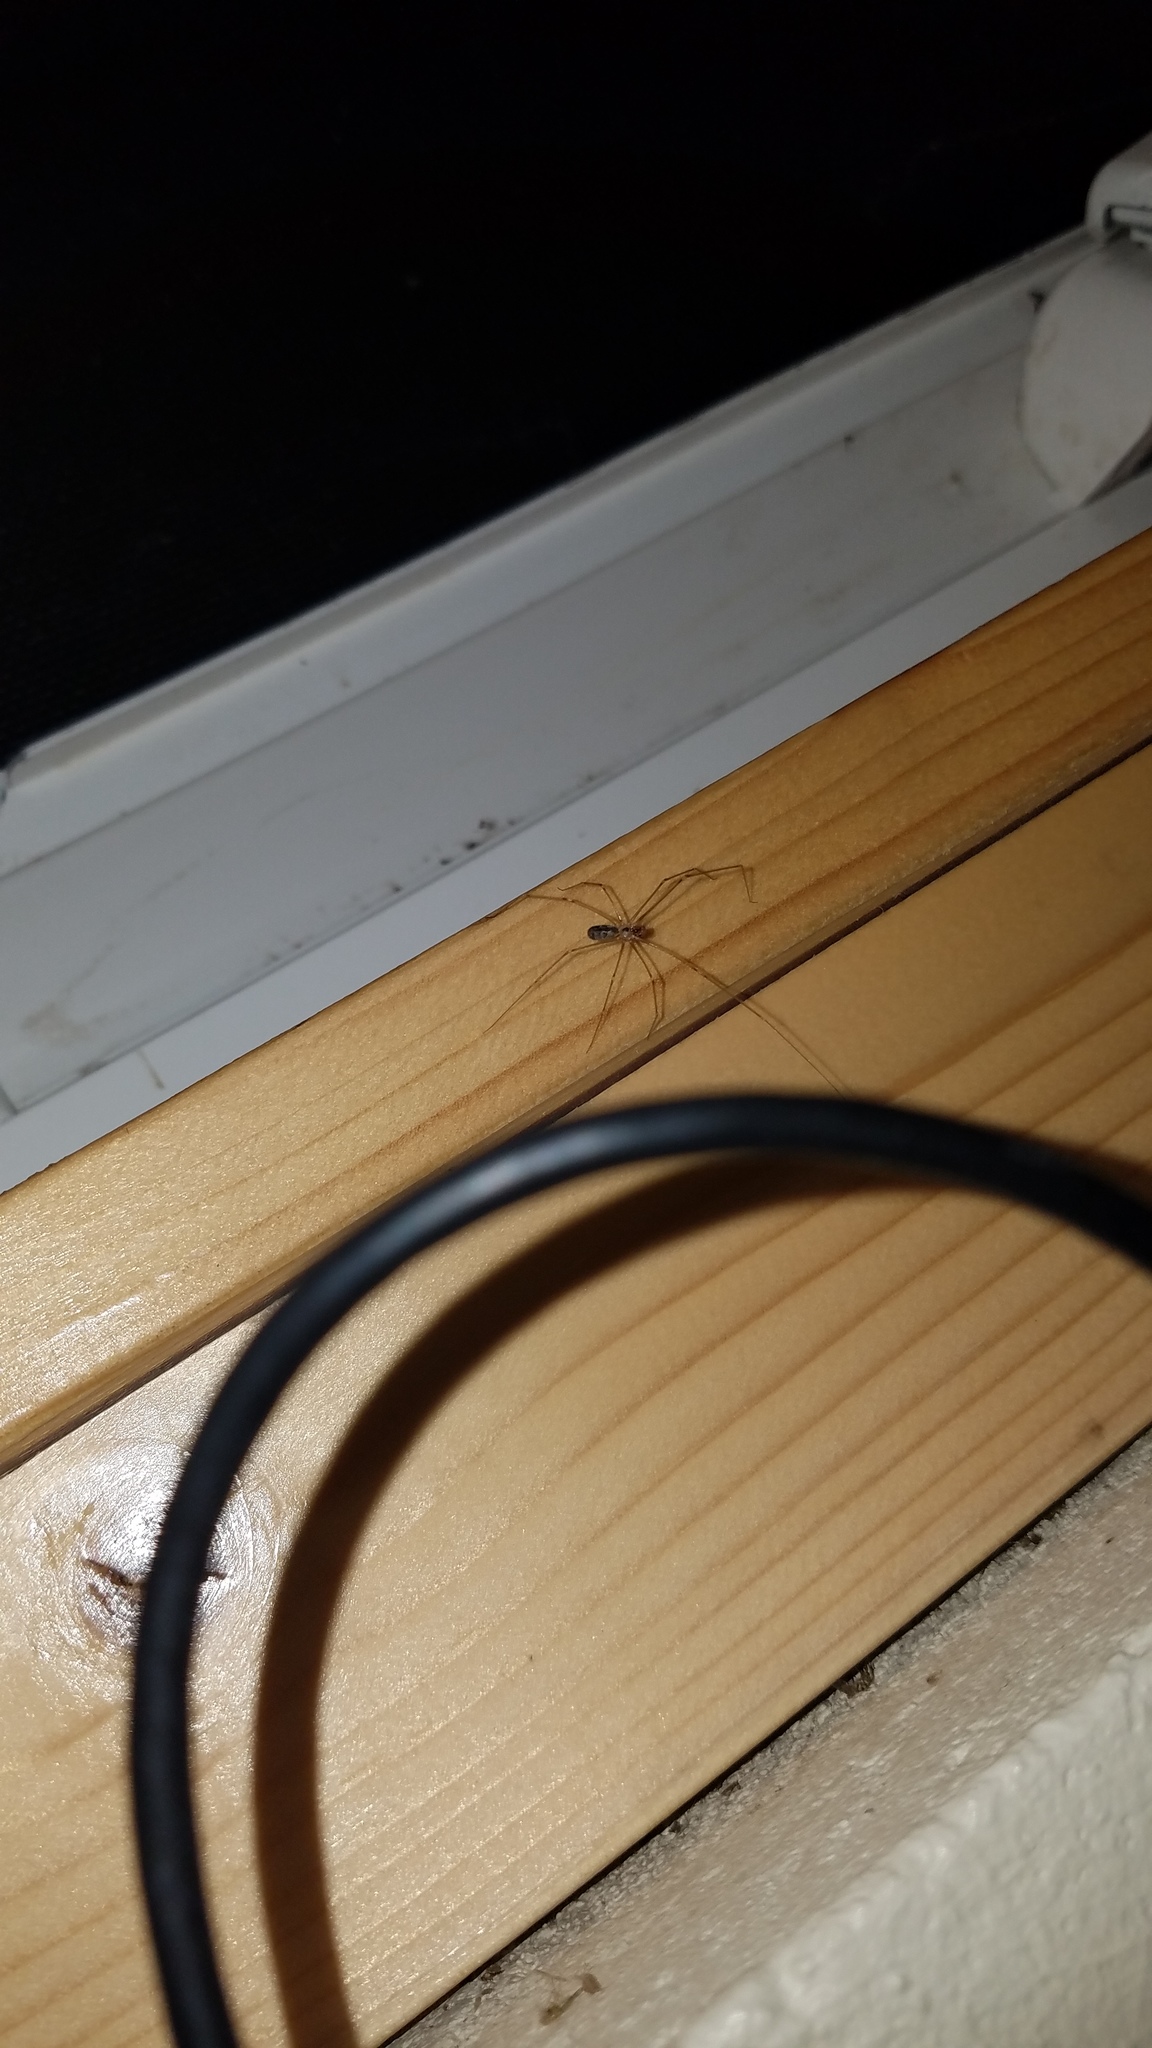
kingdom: Animalia
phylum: Arthropoda
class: Arachnida
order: Araneae
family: Pholcidae
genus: Pholcus
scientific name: Pholcus phalangioides
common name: Longbodied cellar spider
